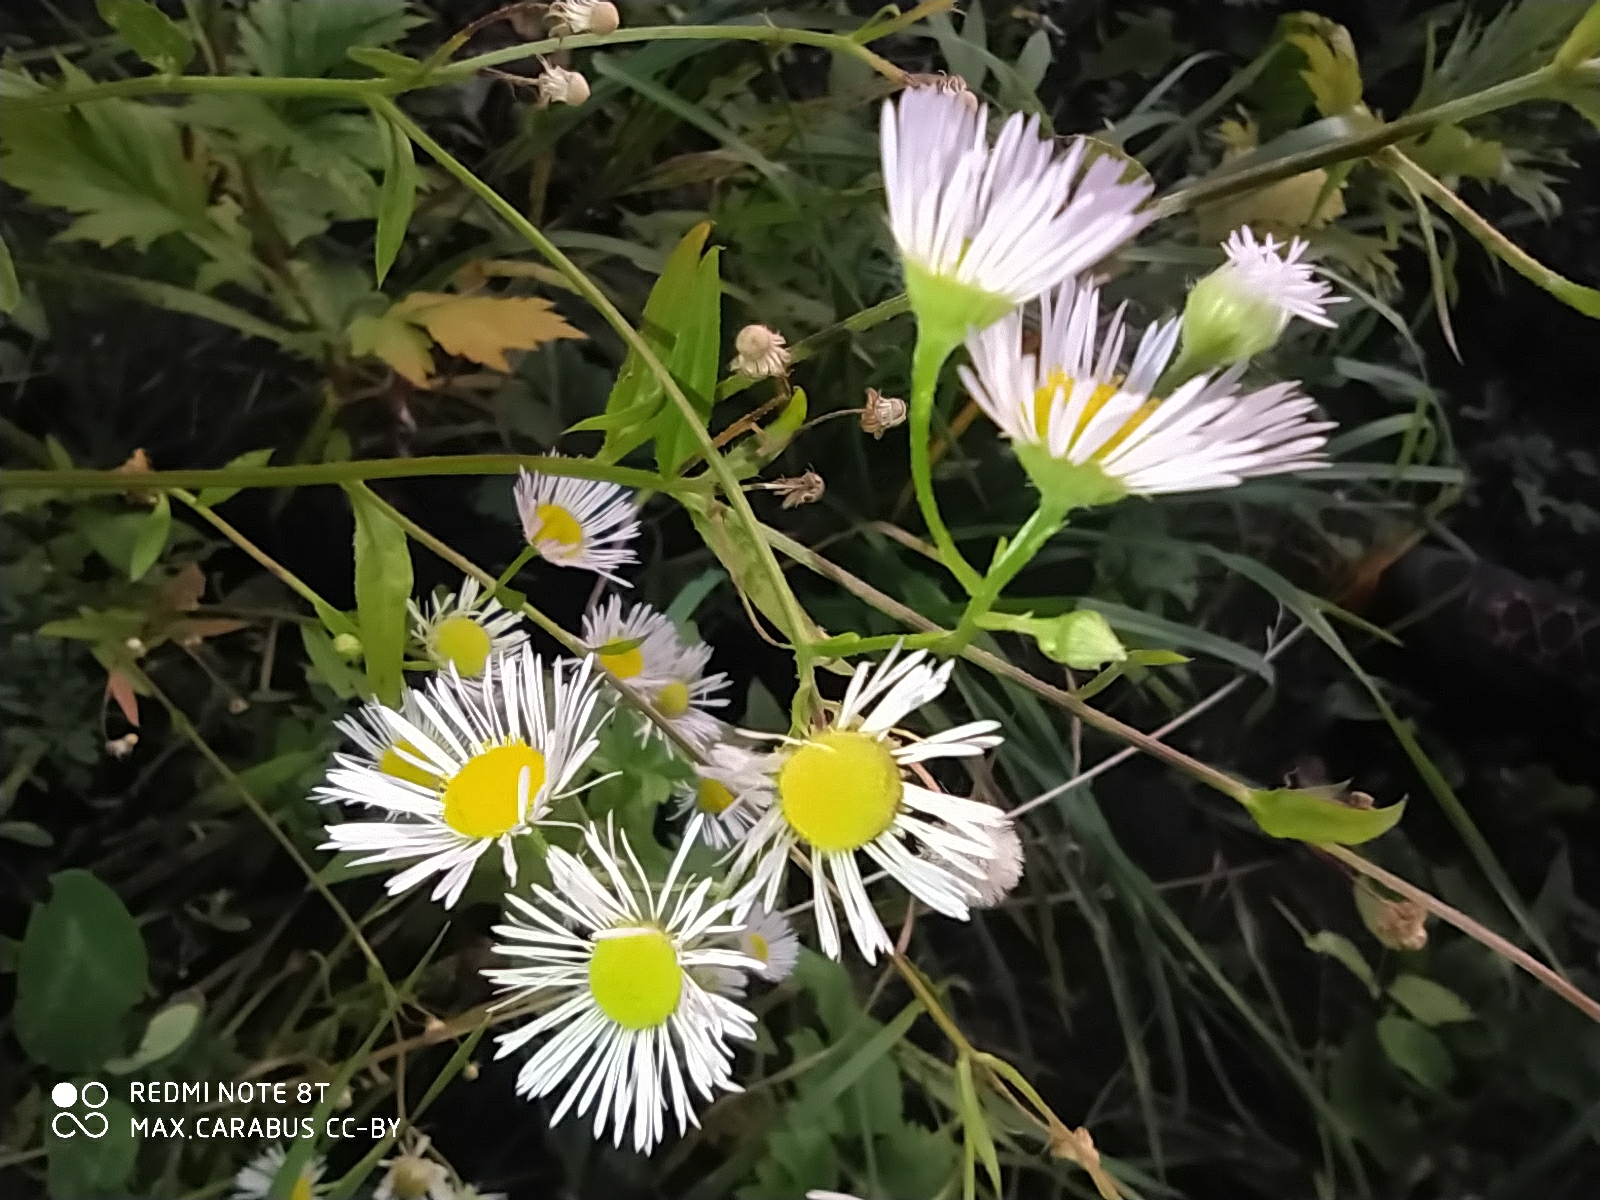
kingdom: Plantae
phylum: Tracheophyta
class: Magnoliopsida
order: Asterales
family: Asteraceae
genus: Erigeron
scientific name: Erigeron annuus
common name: Tall fleabane
